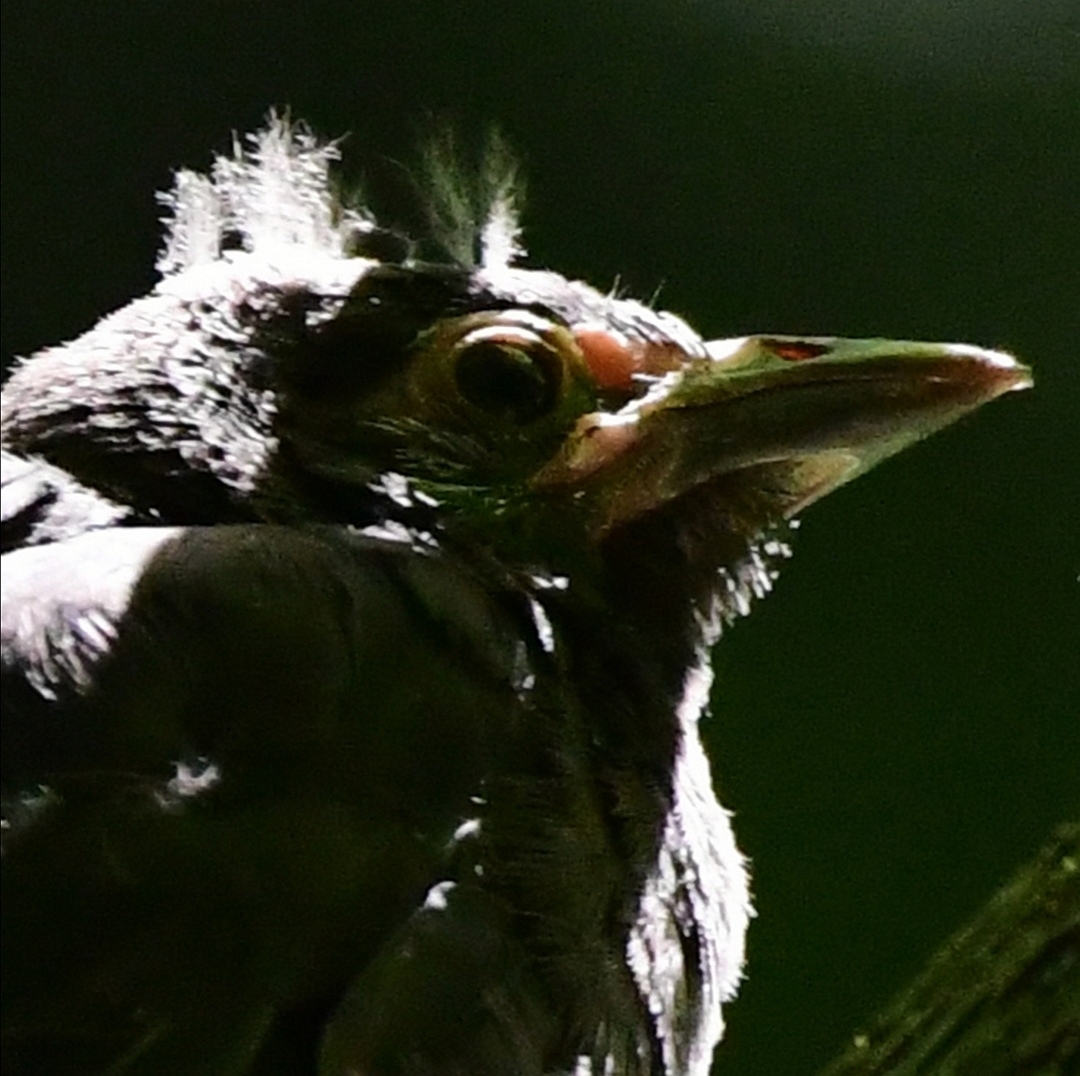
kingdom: Animalia
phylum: Chordata
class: Aves
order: Passeriformes
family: Icteridae
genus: Quiscalus
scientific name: Quiscalus quiscula
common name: Common grackle
